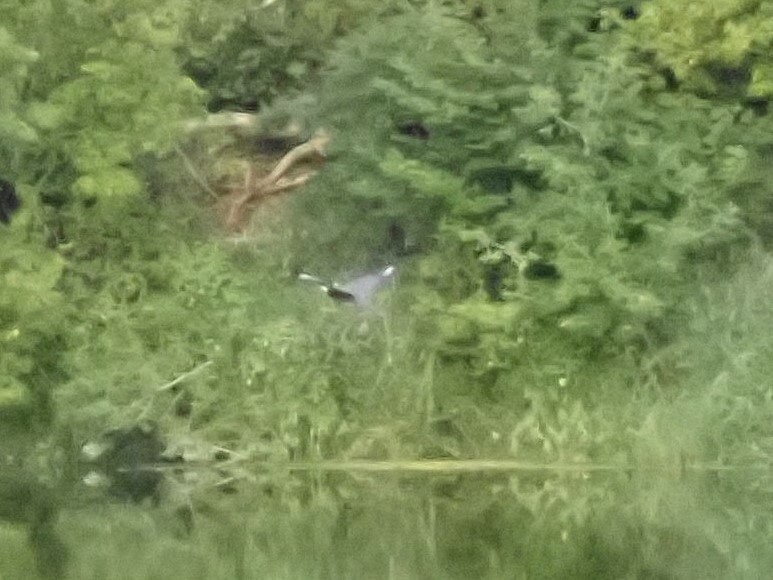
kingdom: Animalia
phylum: Chordata
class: Aves
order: Coraciiformes
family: Alcedinidae
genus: Megaceryle
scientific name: Megaceryle alcyon
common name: Belted kingfisher
